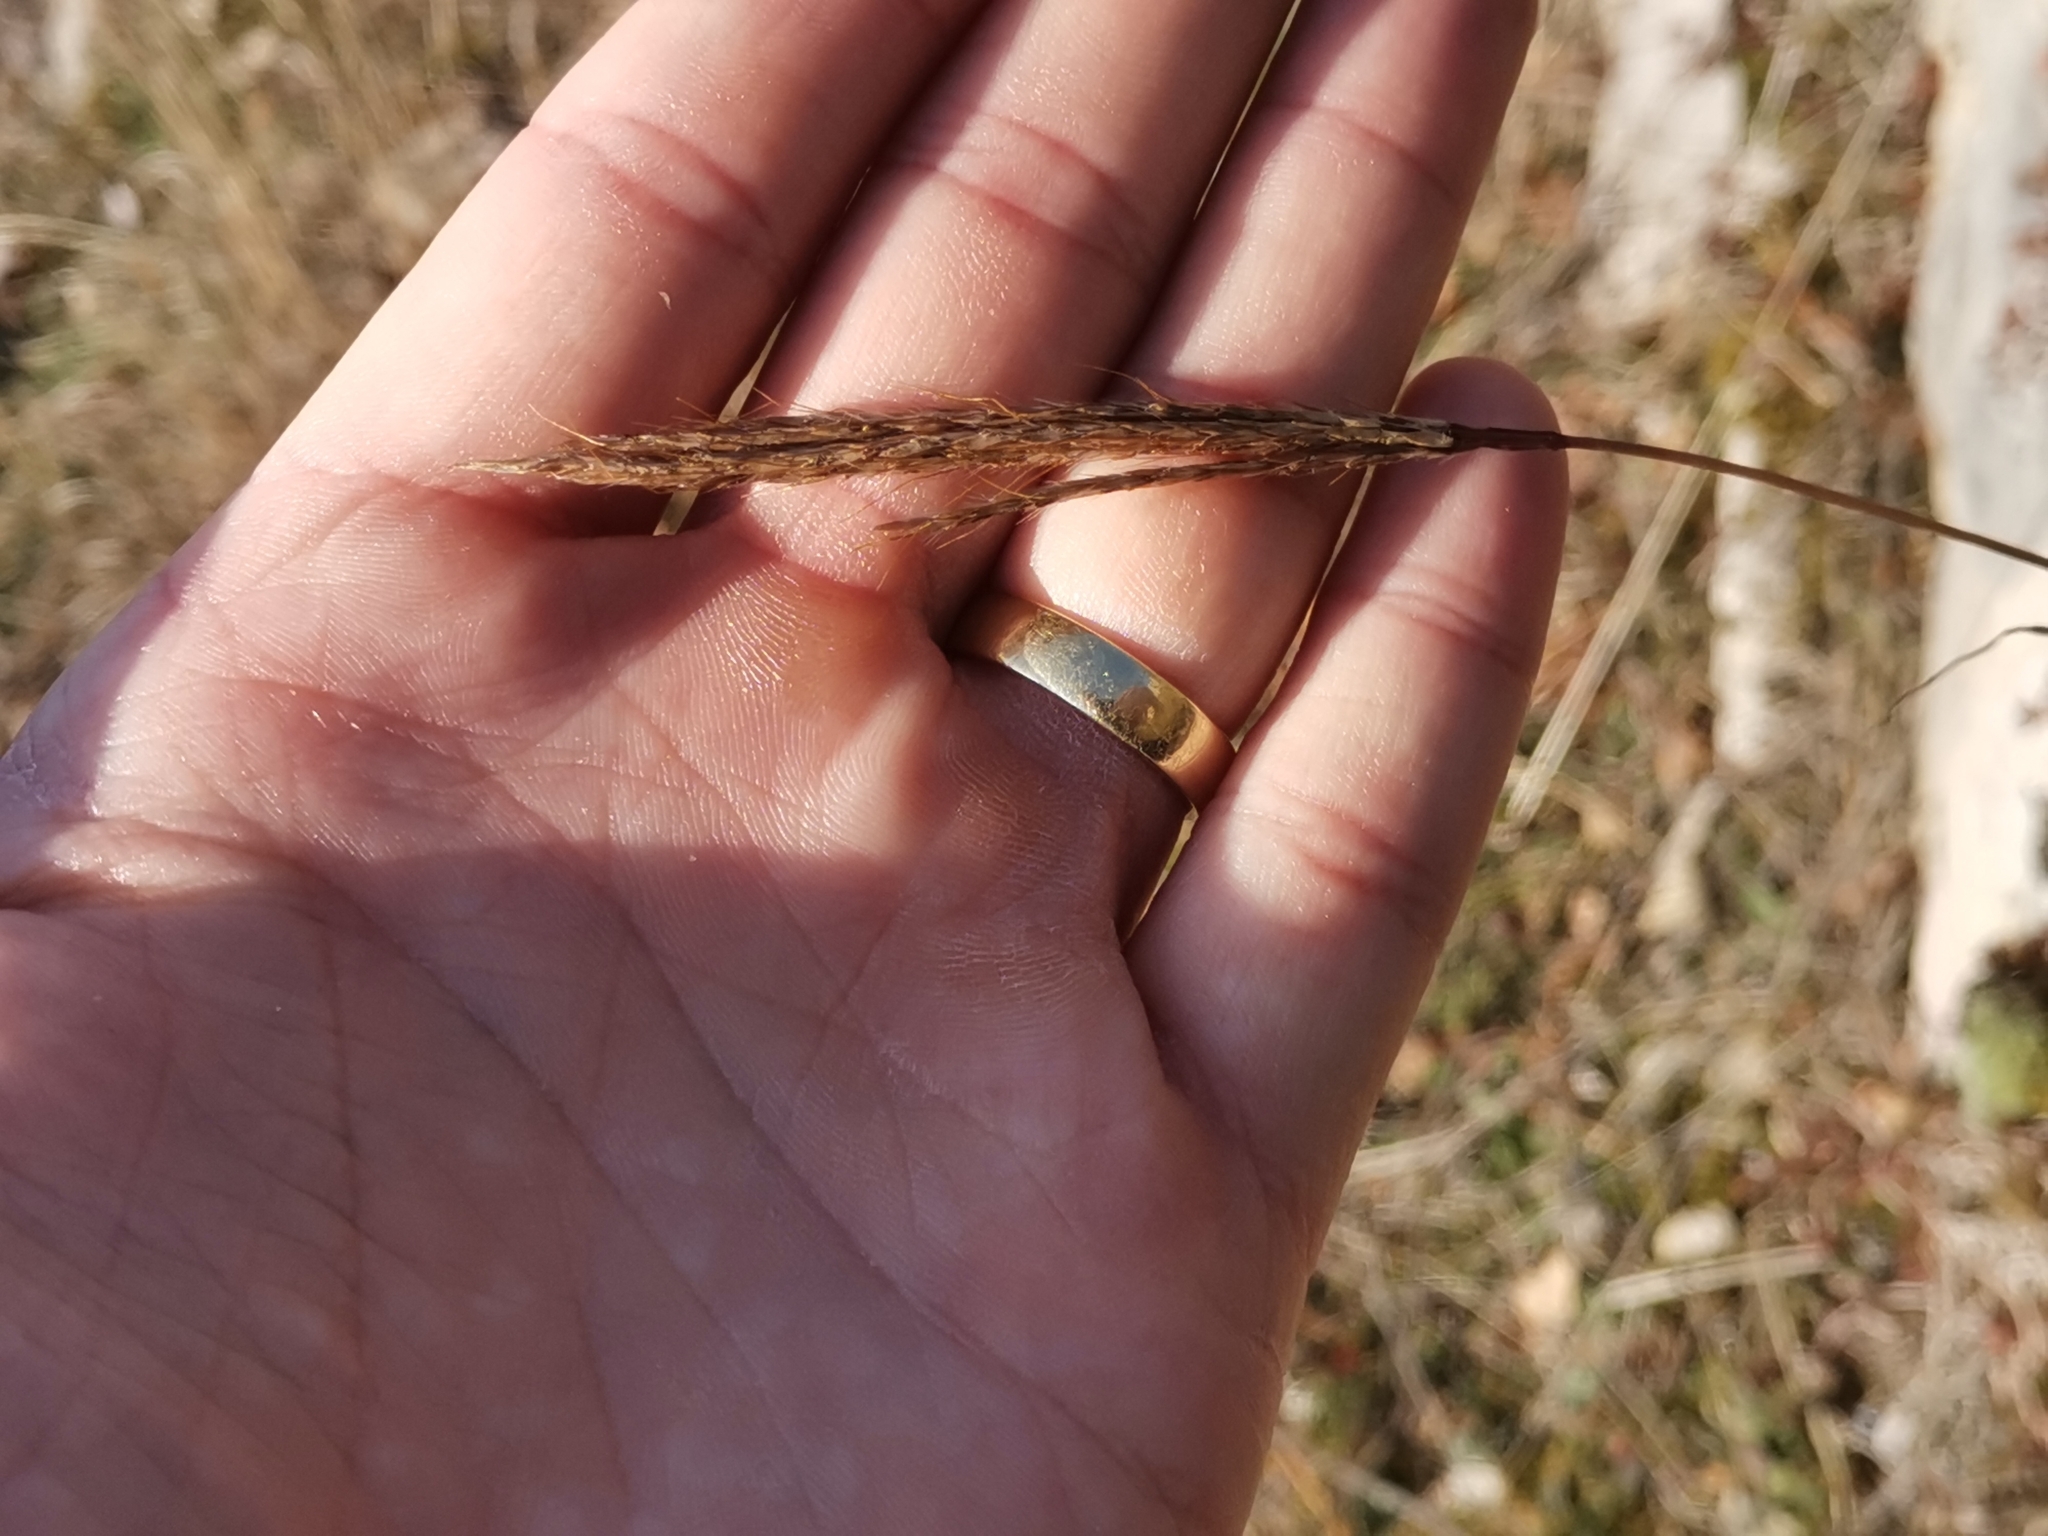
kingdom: Plantae
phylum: Tracheophyta
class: Liliopsida
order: Poales
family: Poaceae
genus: Bothriochloa
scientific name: Bothriochloa ischaemum
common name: Yellow bluestem
